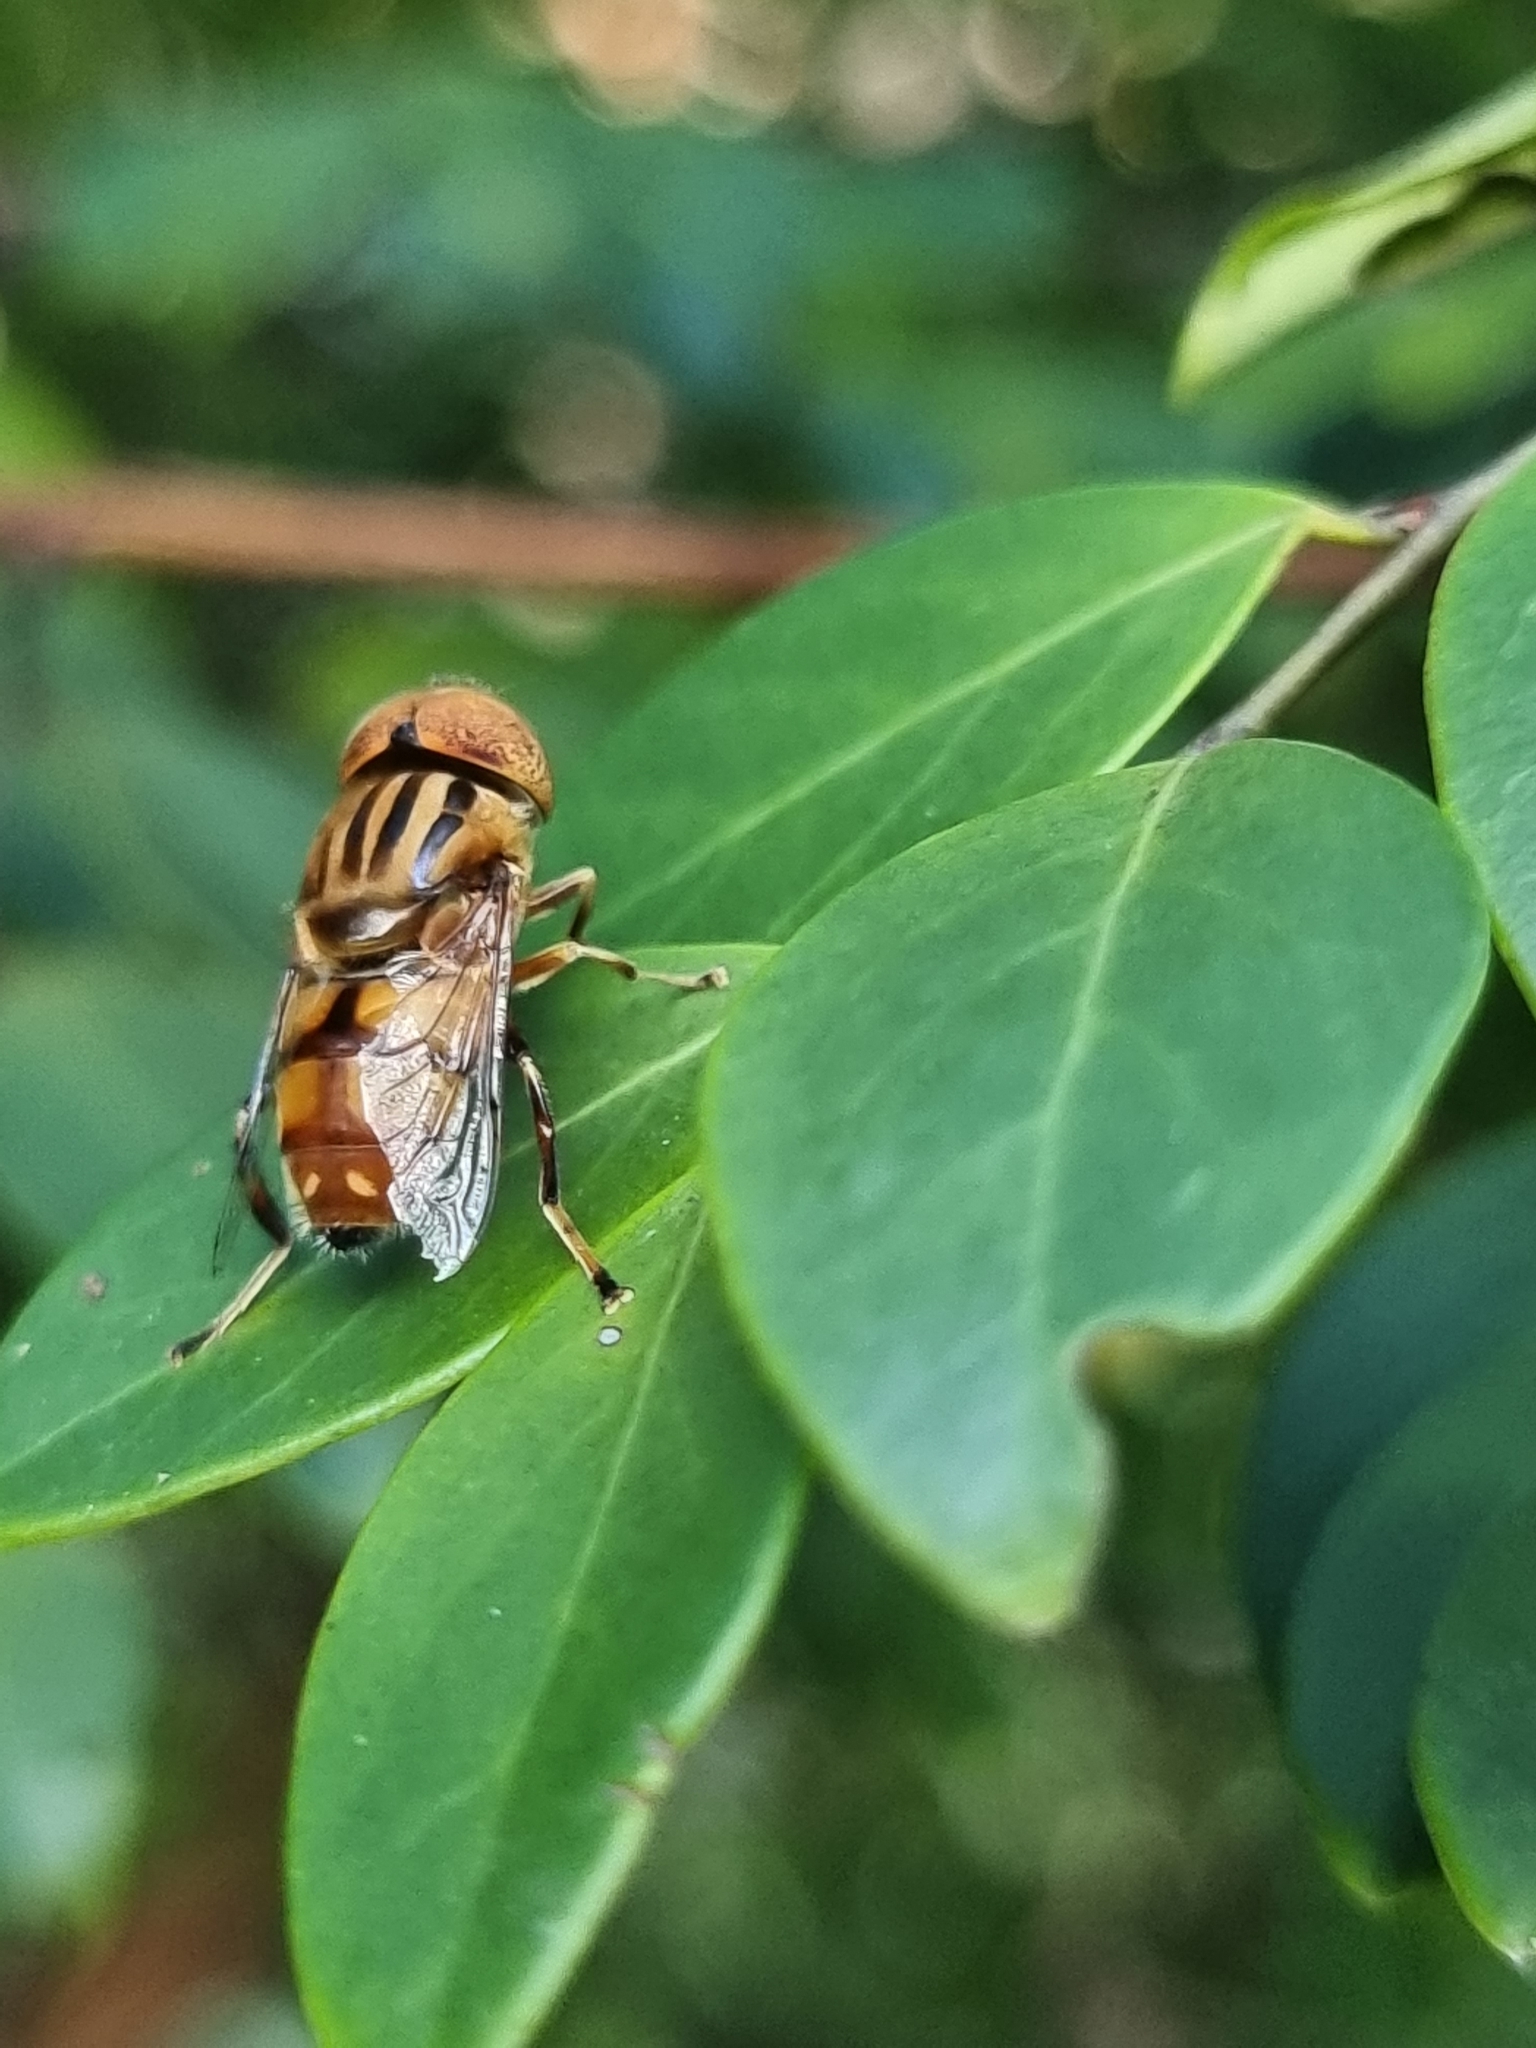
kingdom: Animalia
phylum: Arthropoda
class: Insecta
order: Diptera
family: Syrphidae
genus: Eristalinus
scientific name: Eristalinus punctulatus
